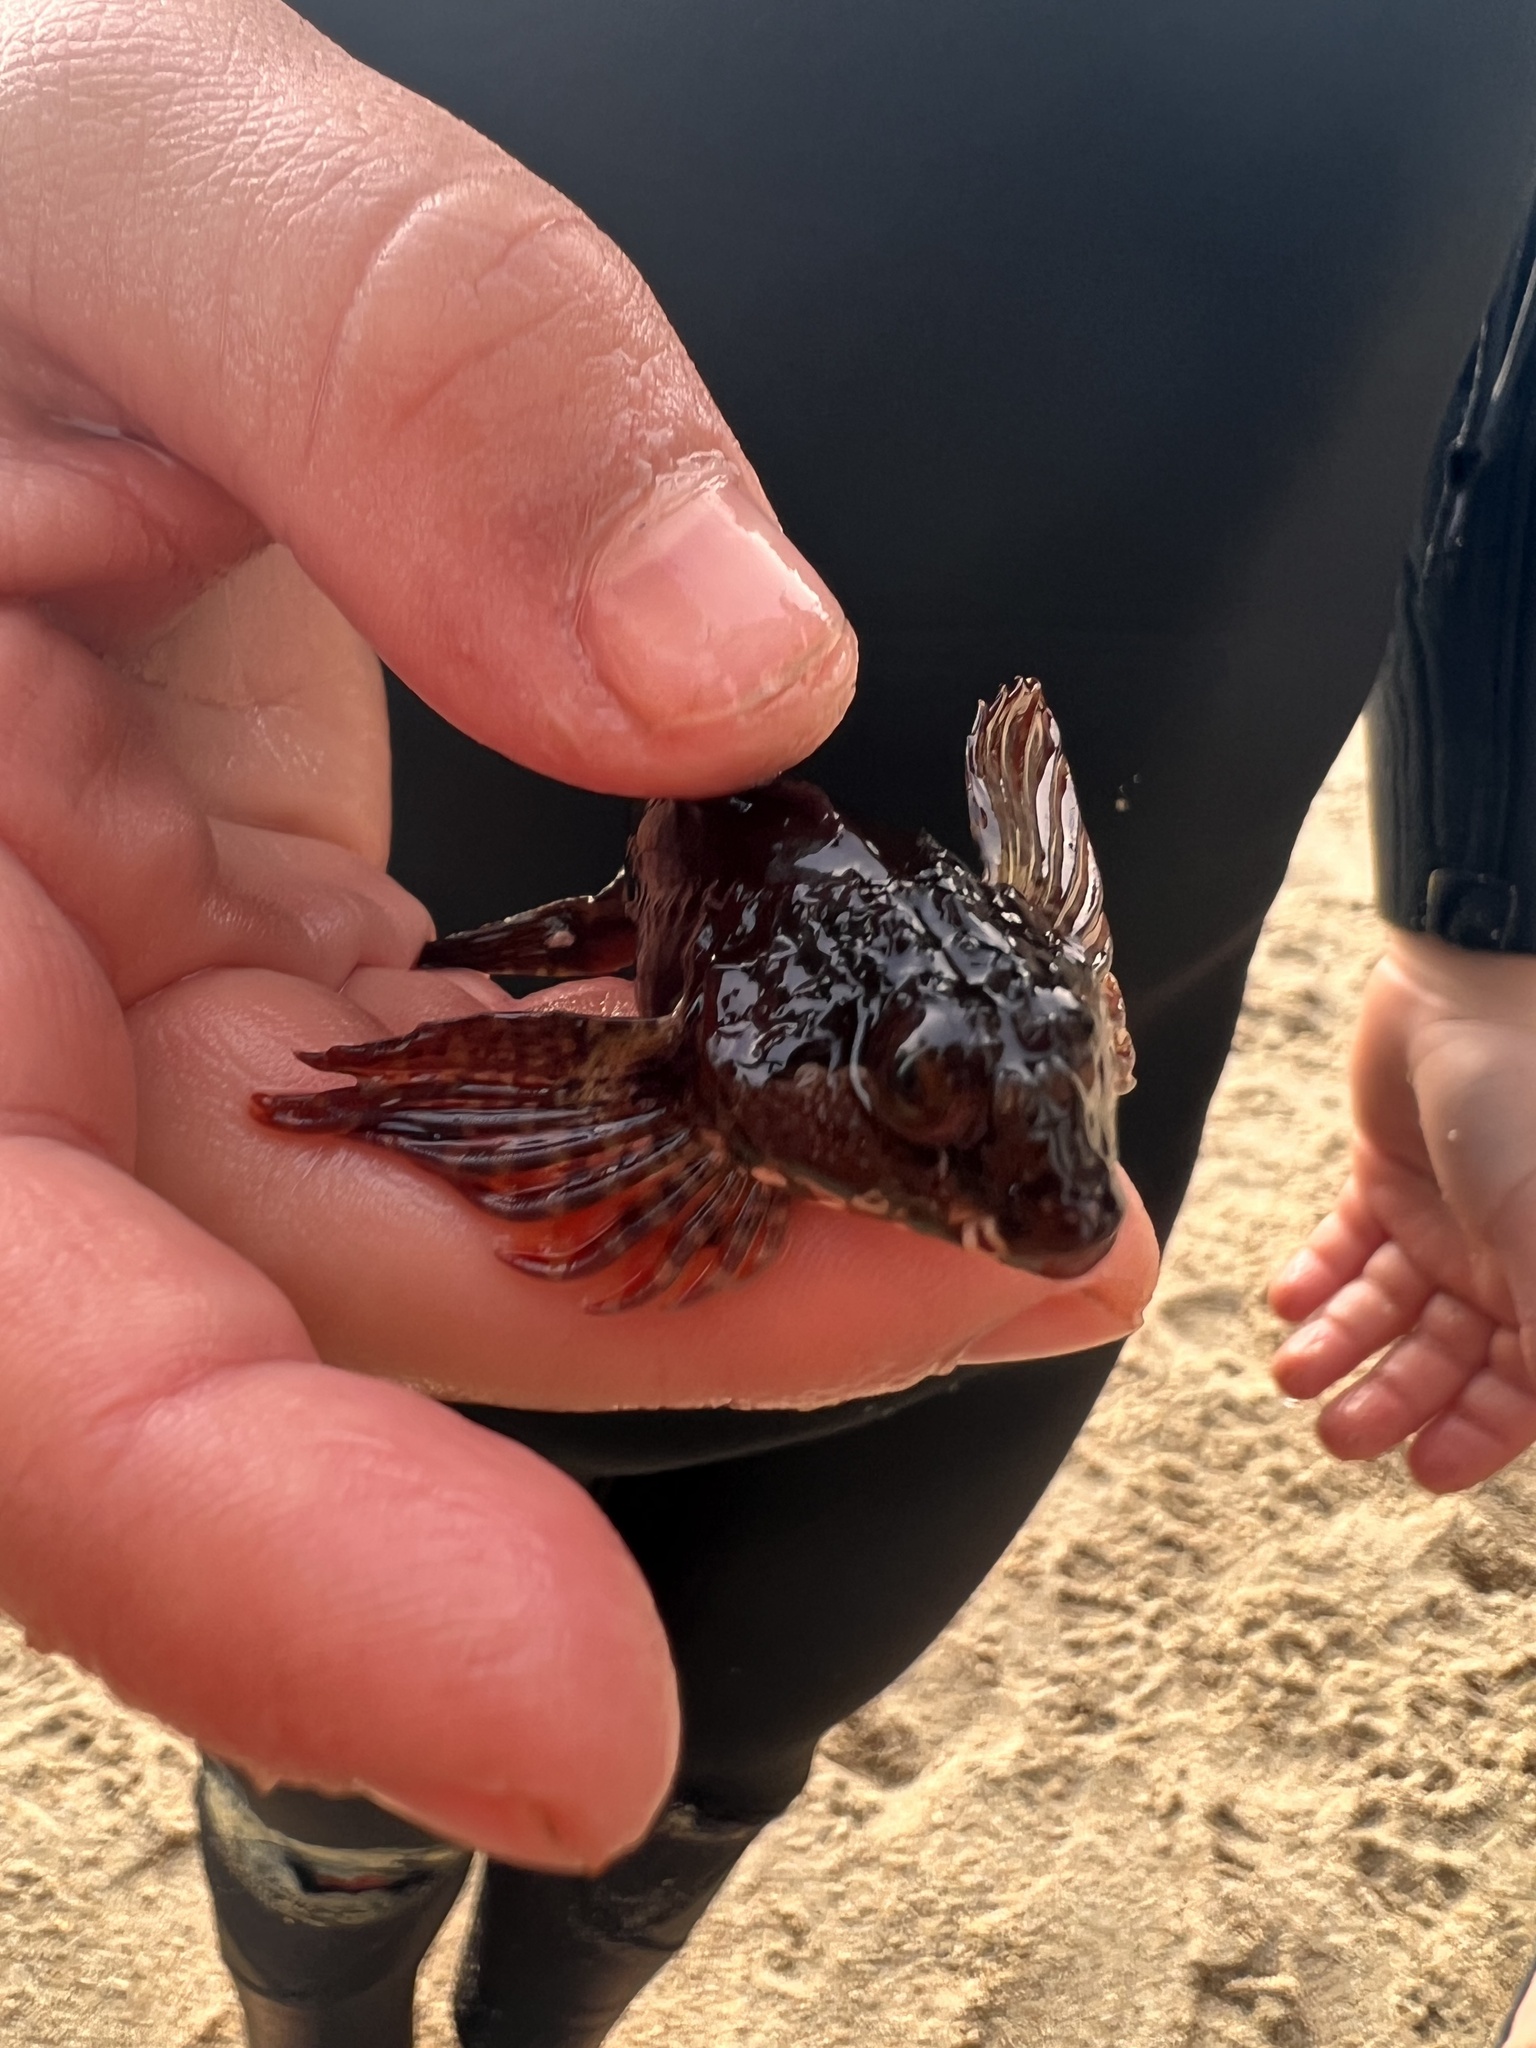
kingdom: Animalia
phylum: Chordata
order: Scorpaeniformes
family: Cottidae
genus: Oligocottus
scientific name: Oligocottus snyderi
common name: Fluffy sculpin
